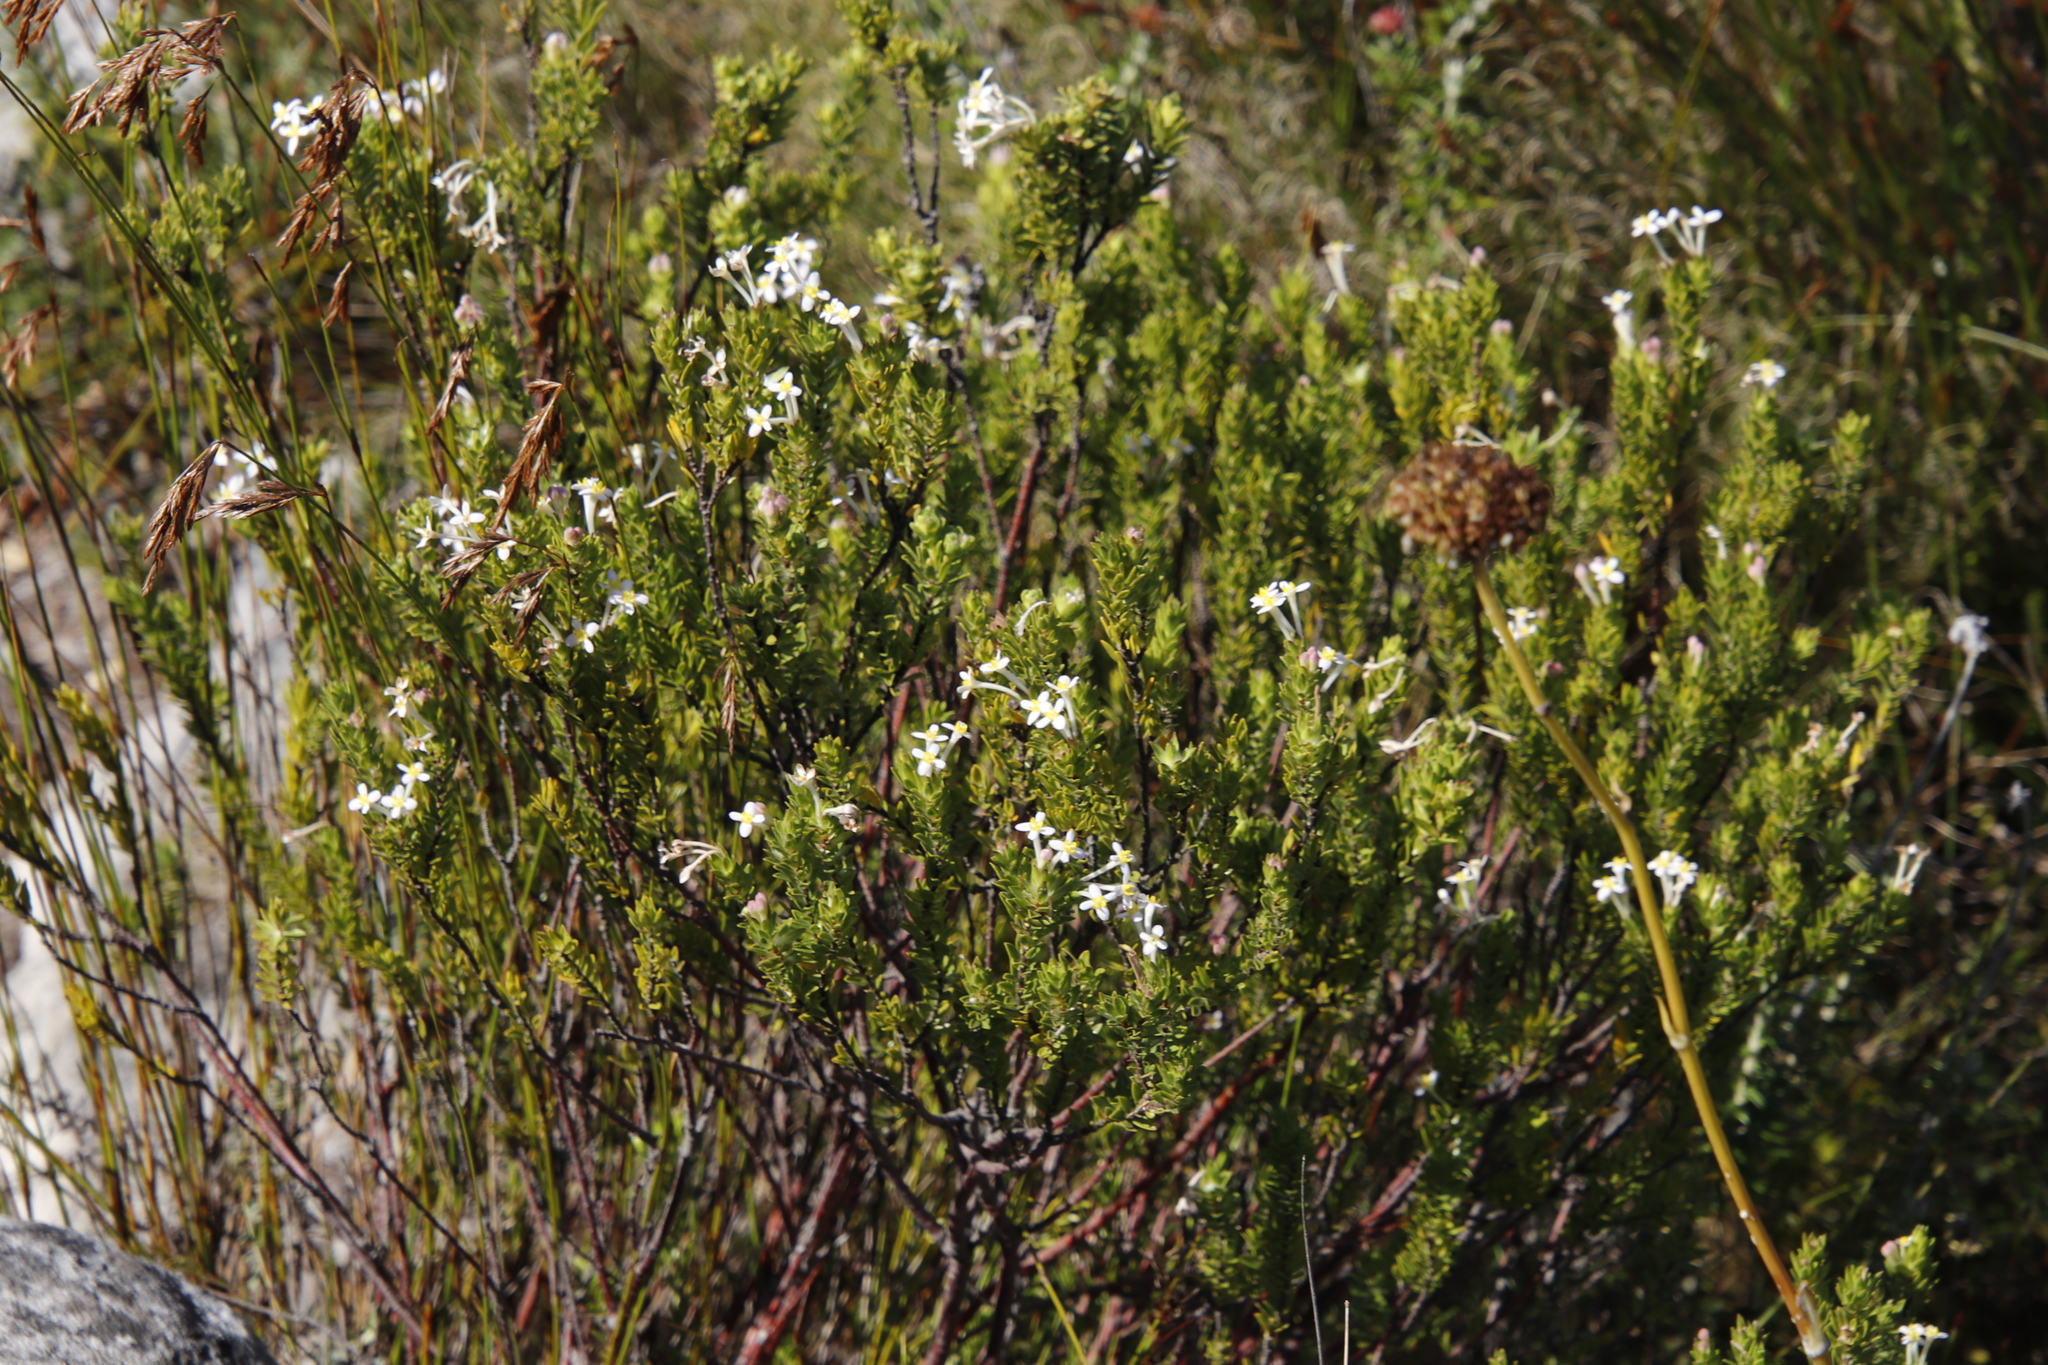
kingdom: Plantae
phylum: Tracheophyta
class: Magnoliopsida
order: Malvales
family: Thymelaeaceae
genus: Gnidia
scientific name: Gnidia tomentosa
